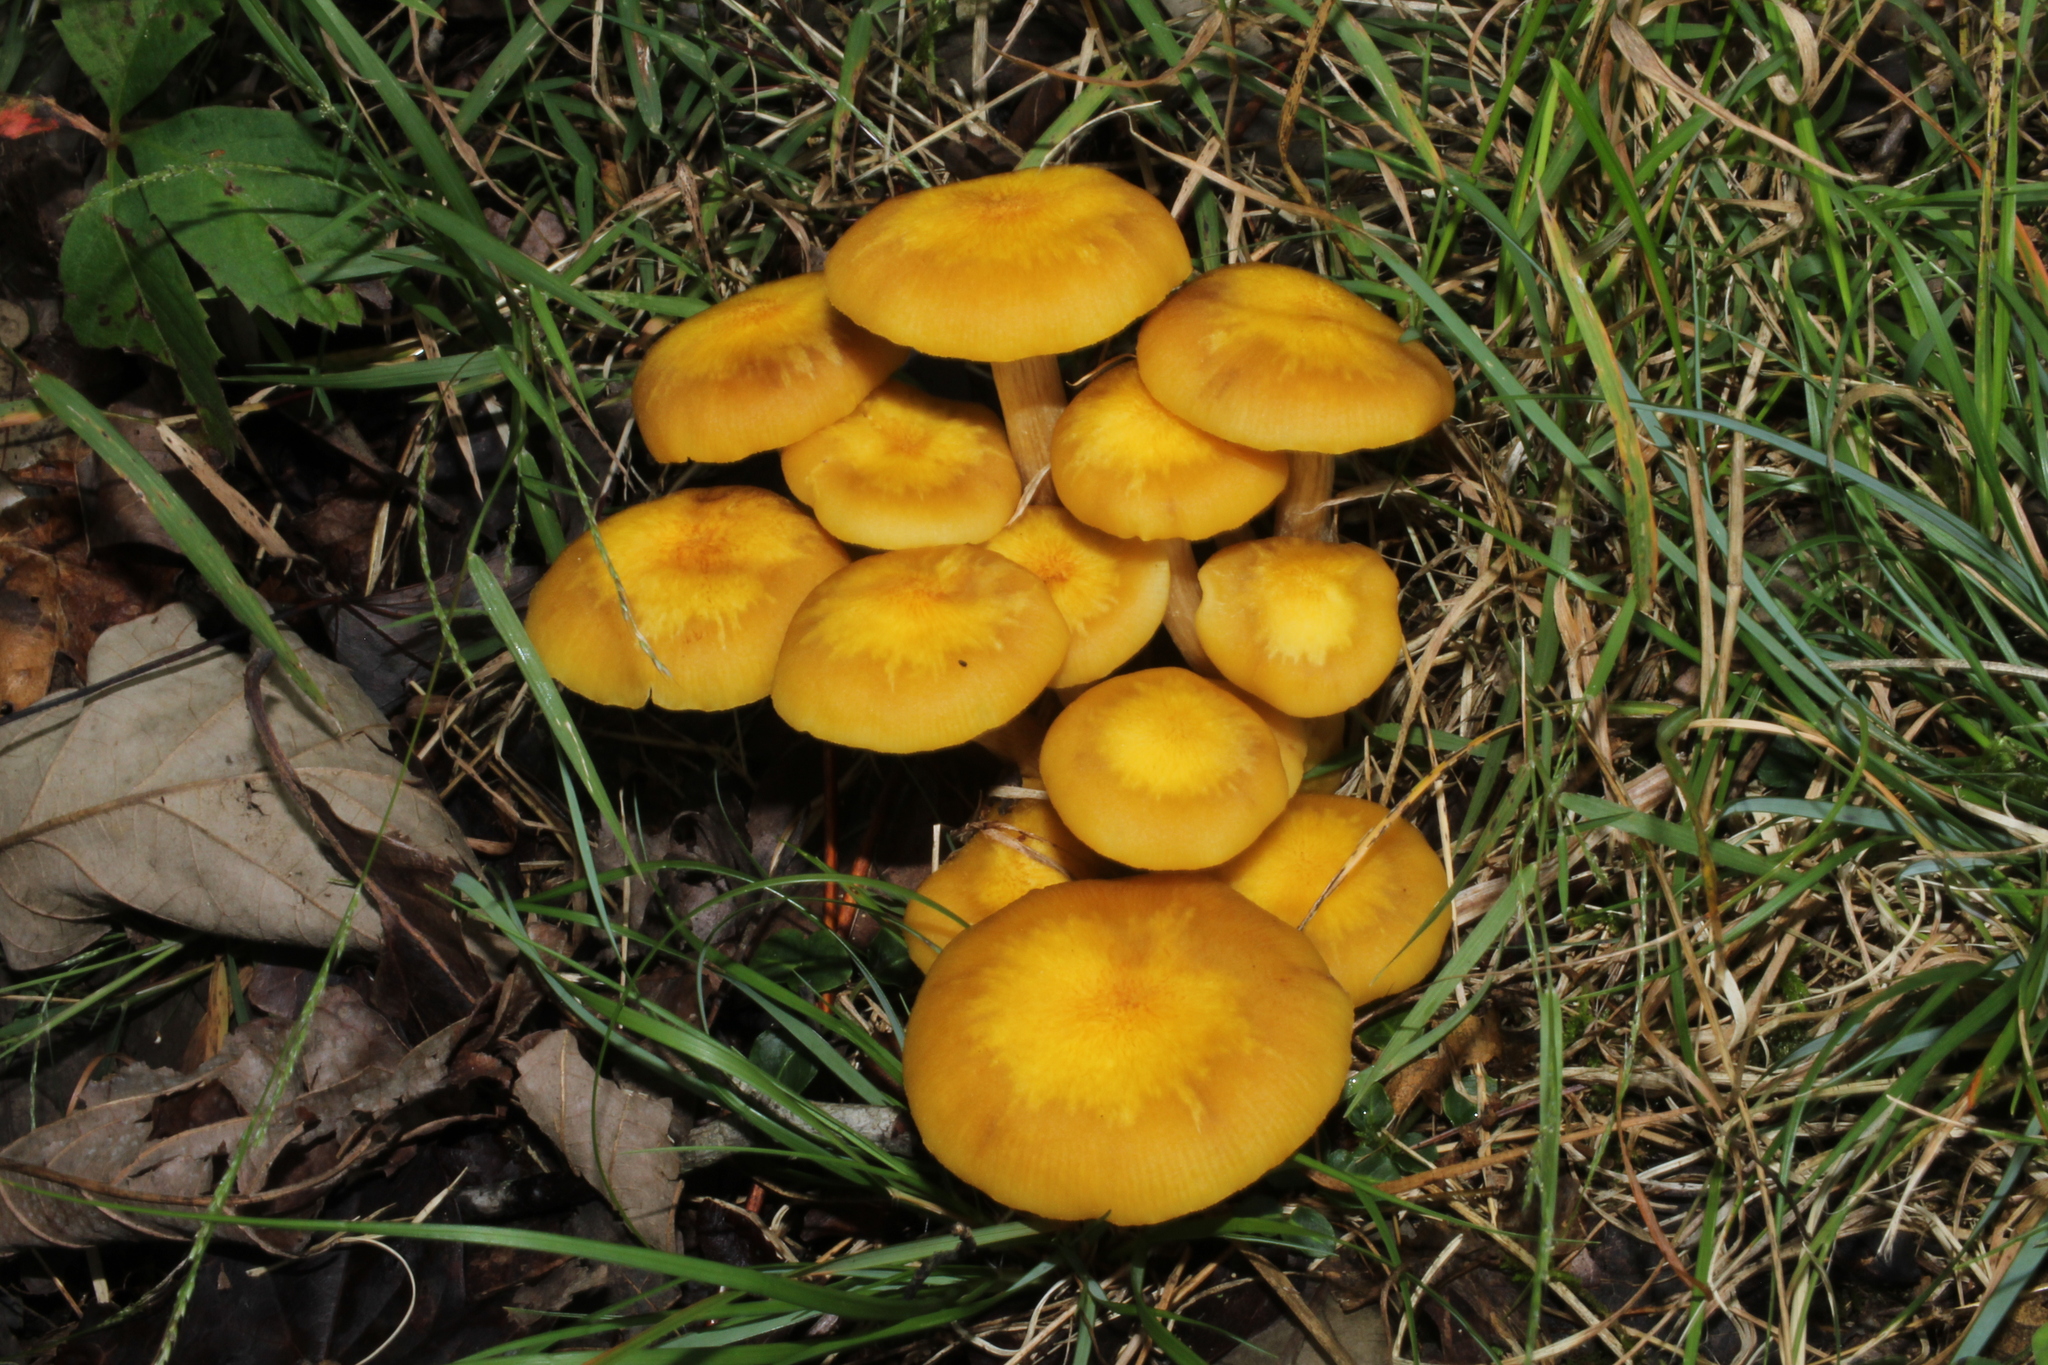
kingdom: Fungi
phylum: Basidiomycota
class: Agaricomycetes
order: Agaricales
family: Physalacriaceae
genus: Desarmillaria
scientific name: Desarmillaria caespitosa
